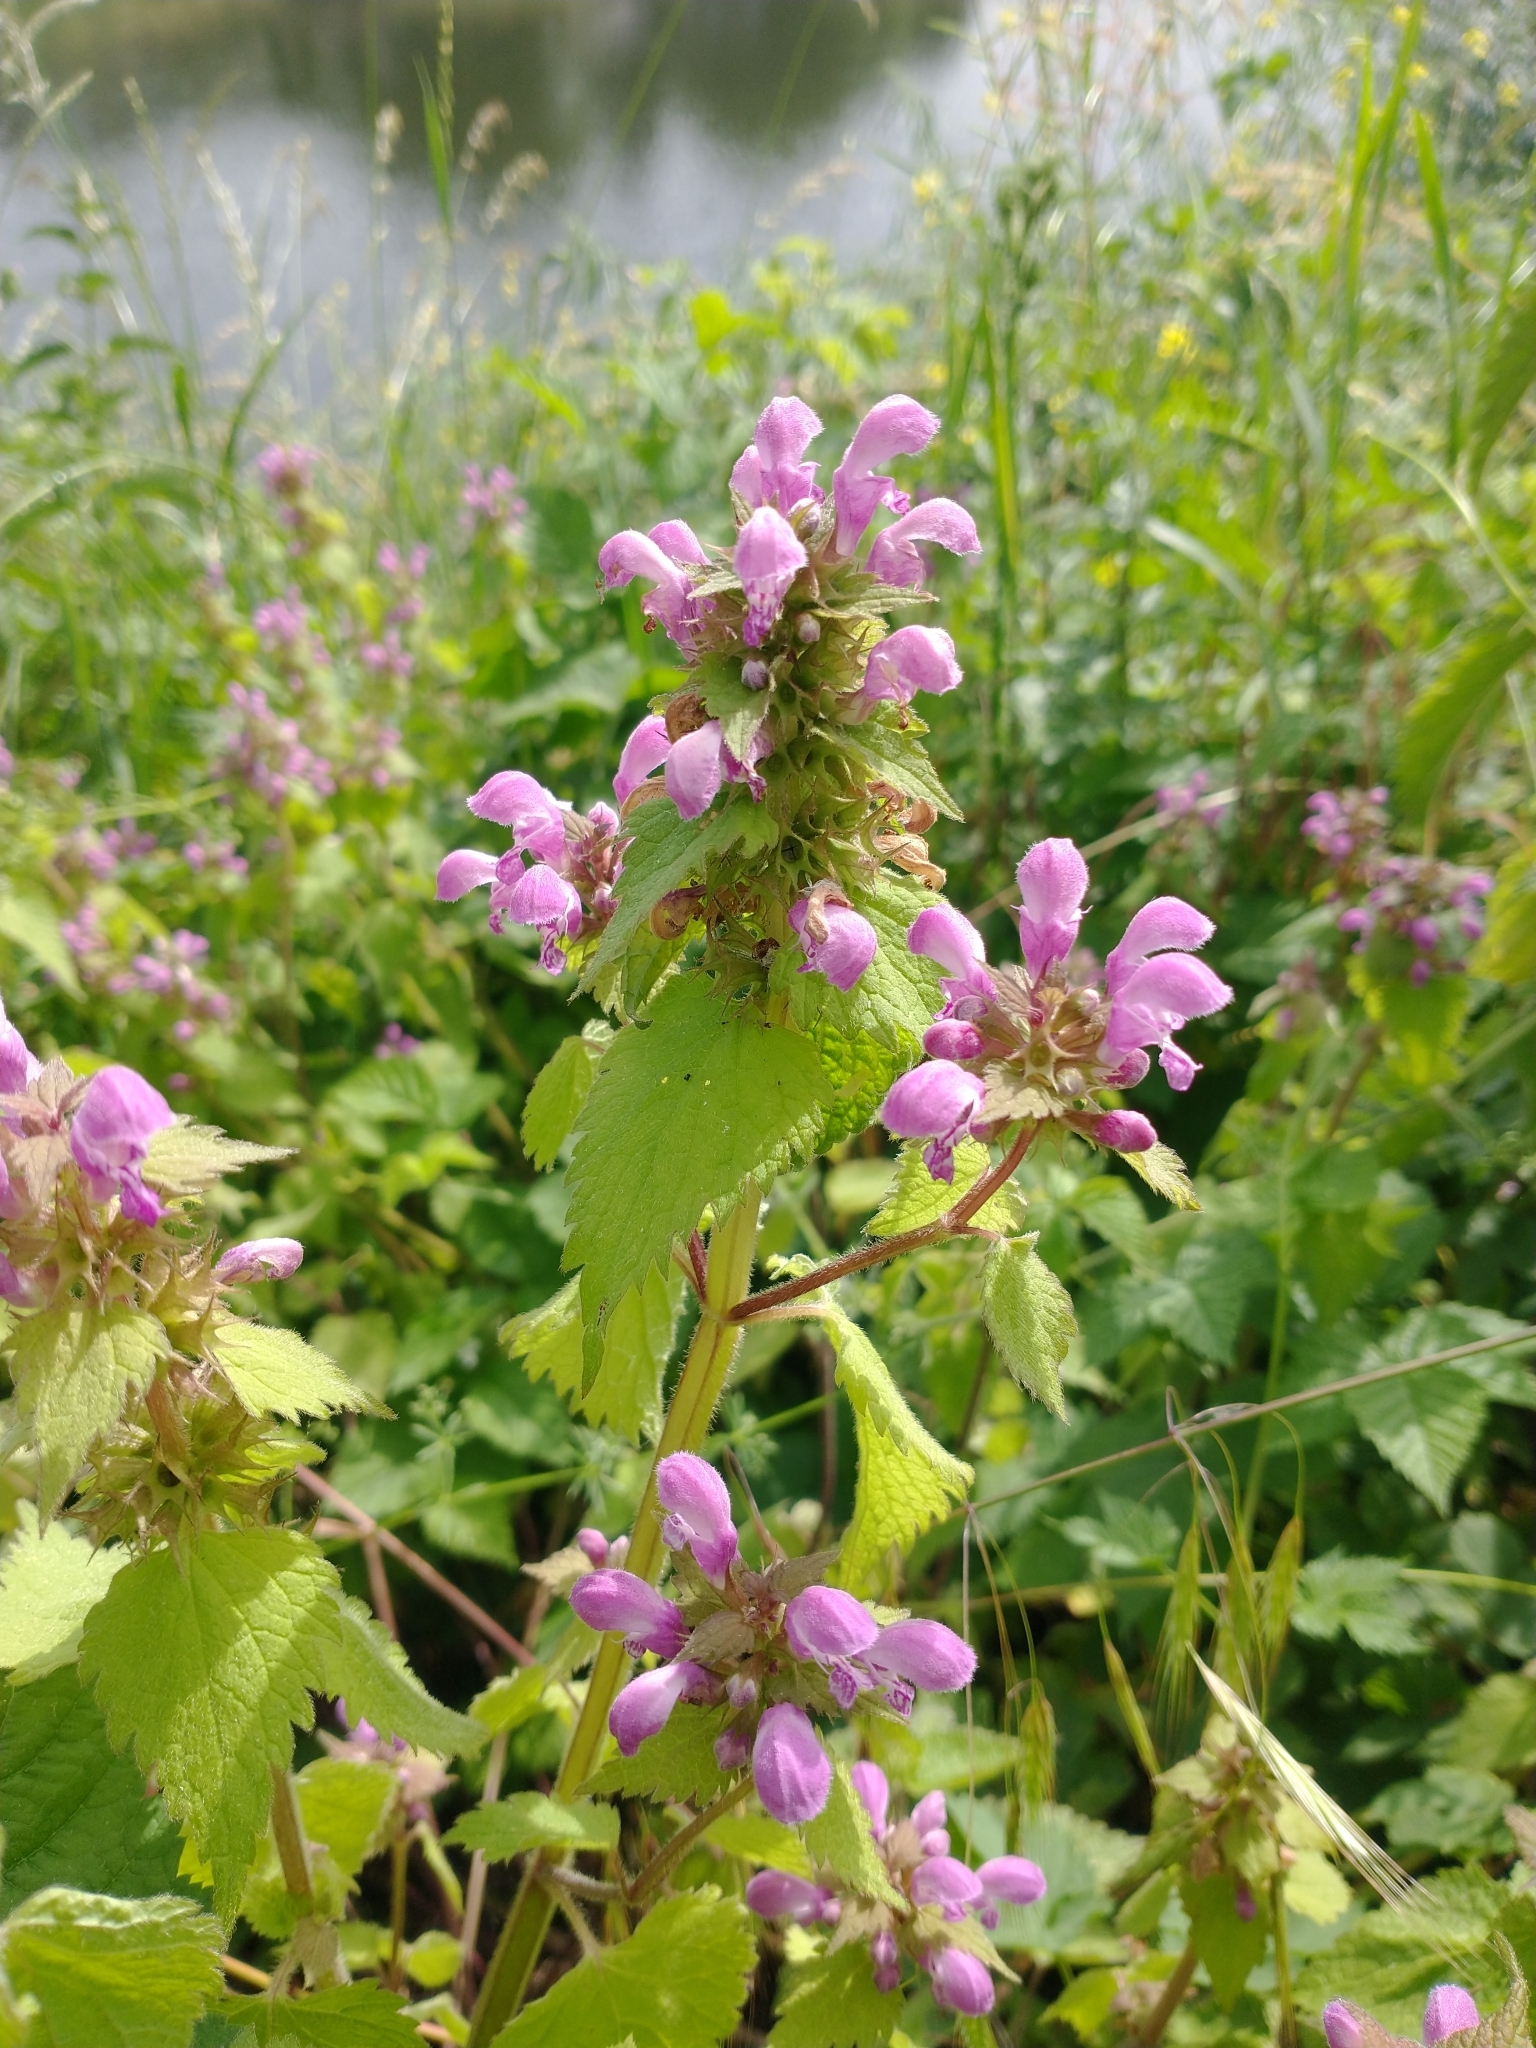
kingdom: Plantae
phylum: Tracheophyta
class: Magnoliopsida
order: Lamiales
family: Lamiaceae
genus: Lamium
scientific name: Lamium maculatum
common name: Spotted dead-nettle
